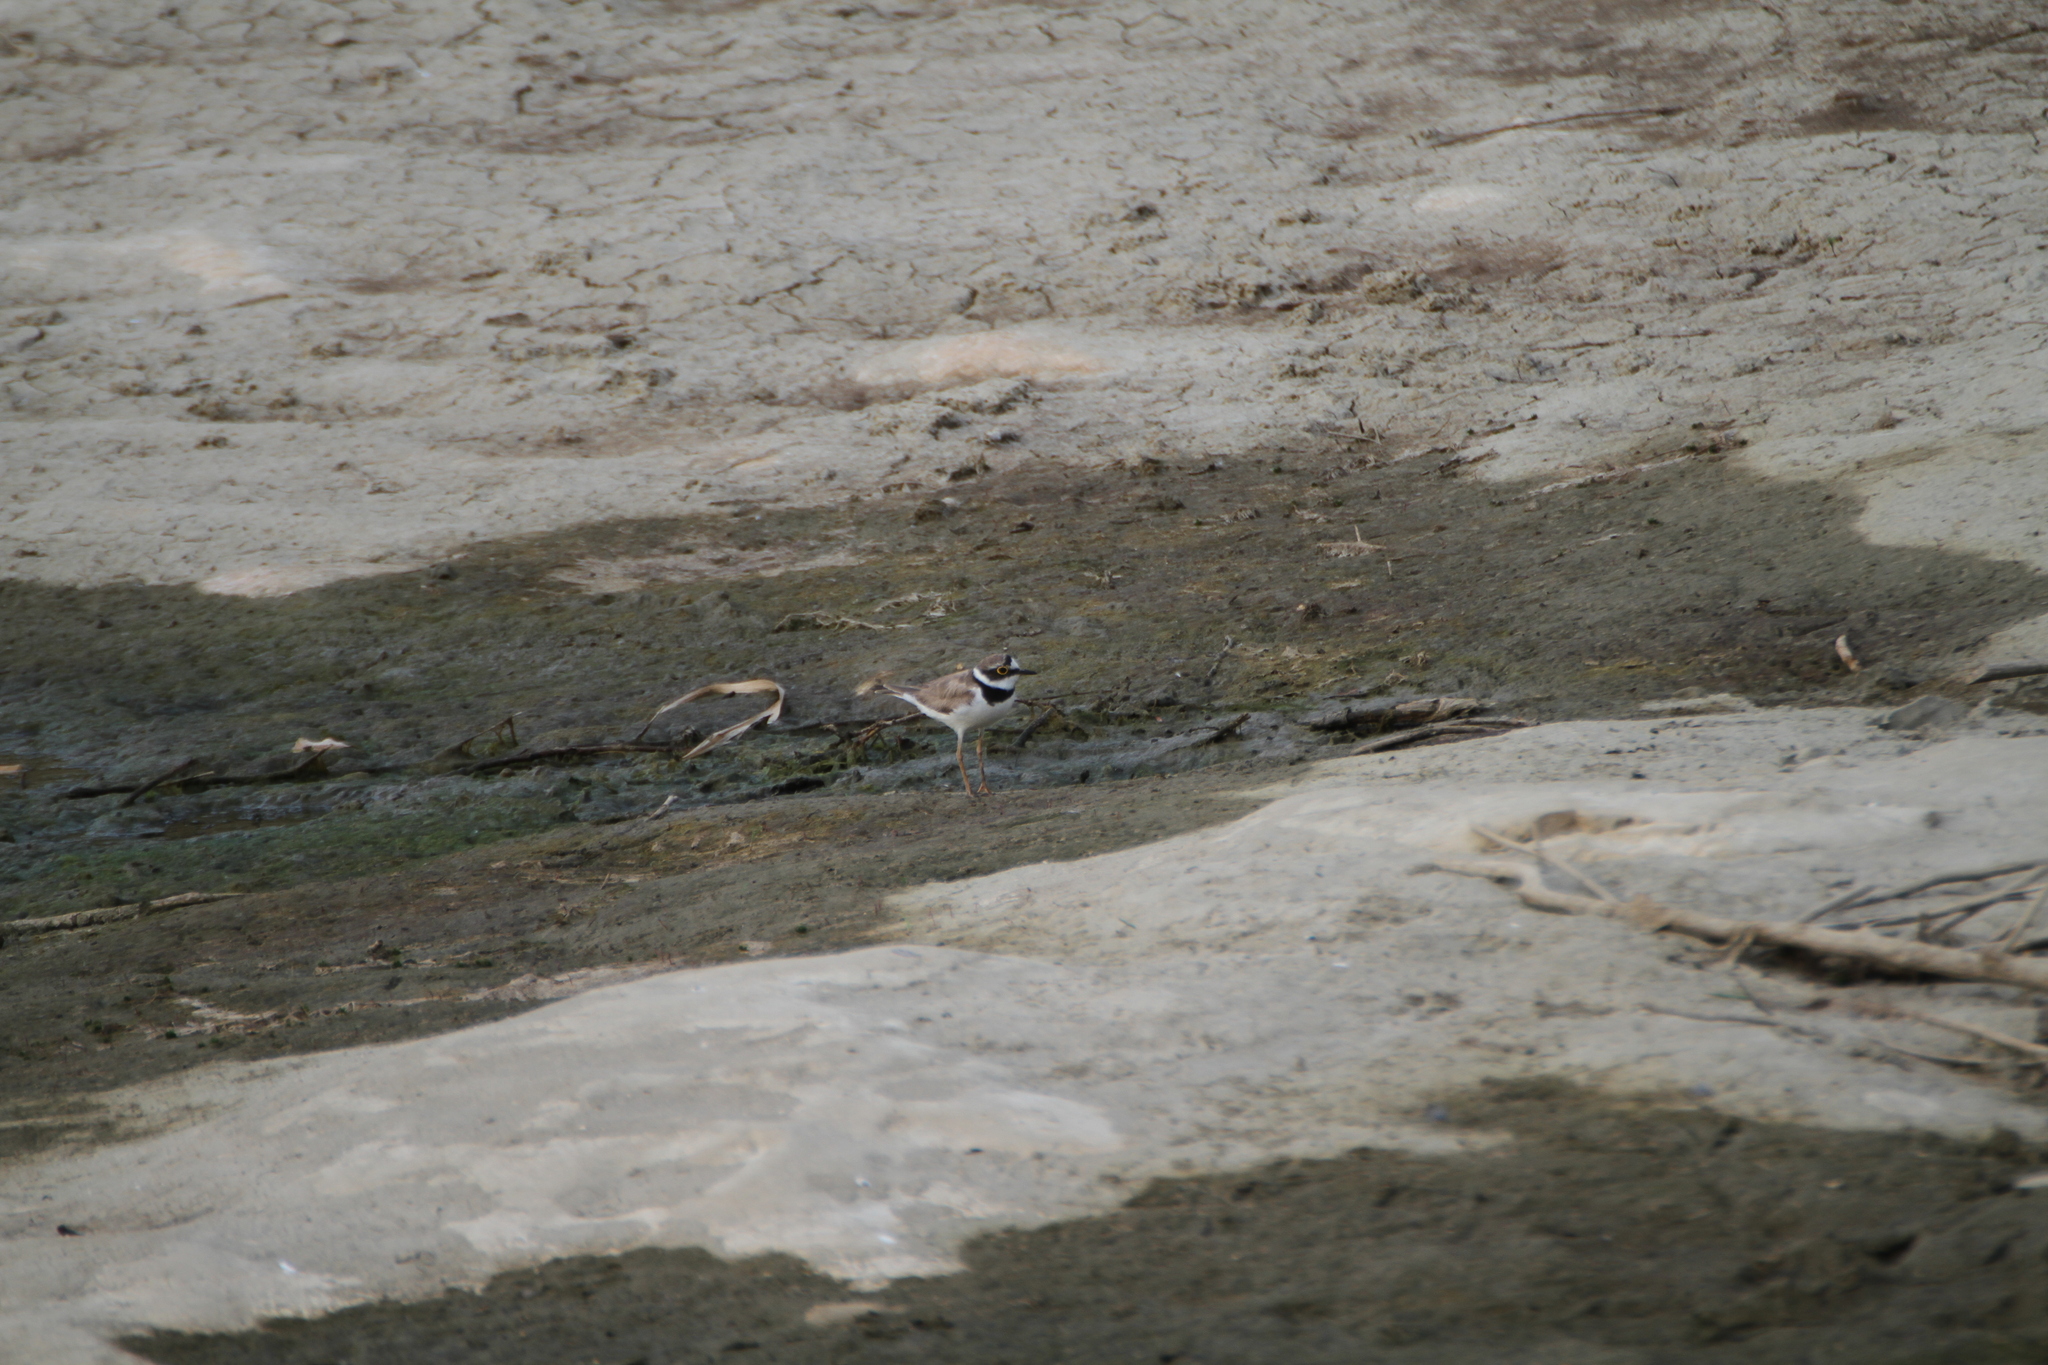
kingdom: Animalia
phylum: Chordata
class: Aves
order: Charadriiformes
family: Charadriidae
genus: Charadrius
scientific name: Charadrius dubius
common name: Little ringed plover
